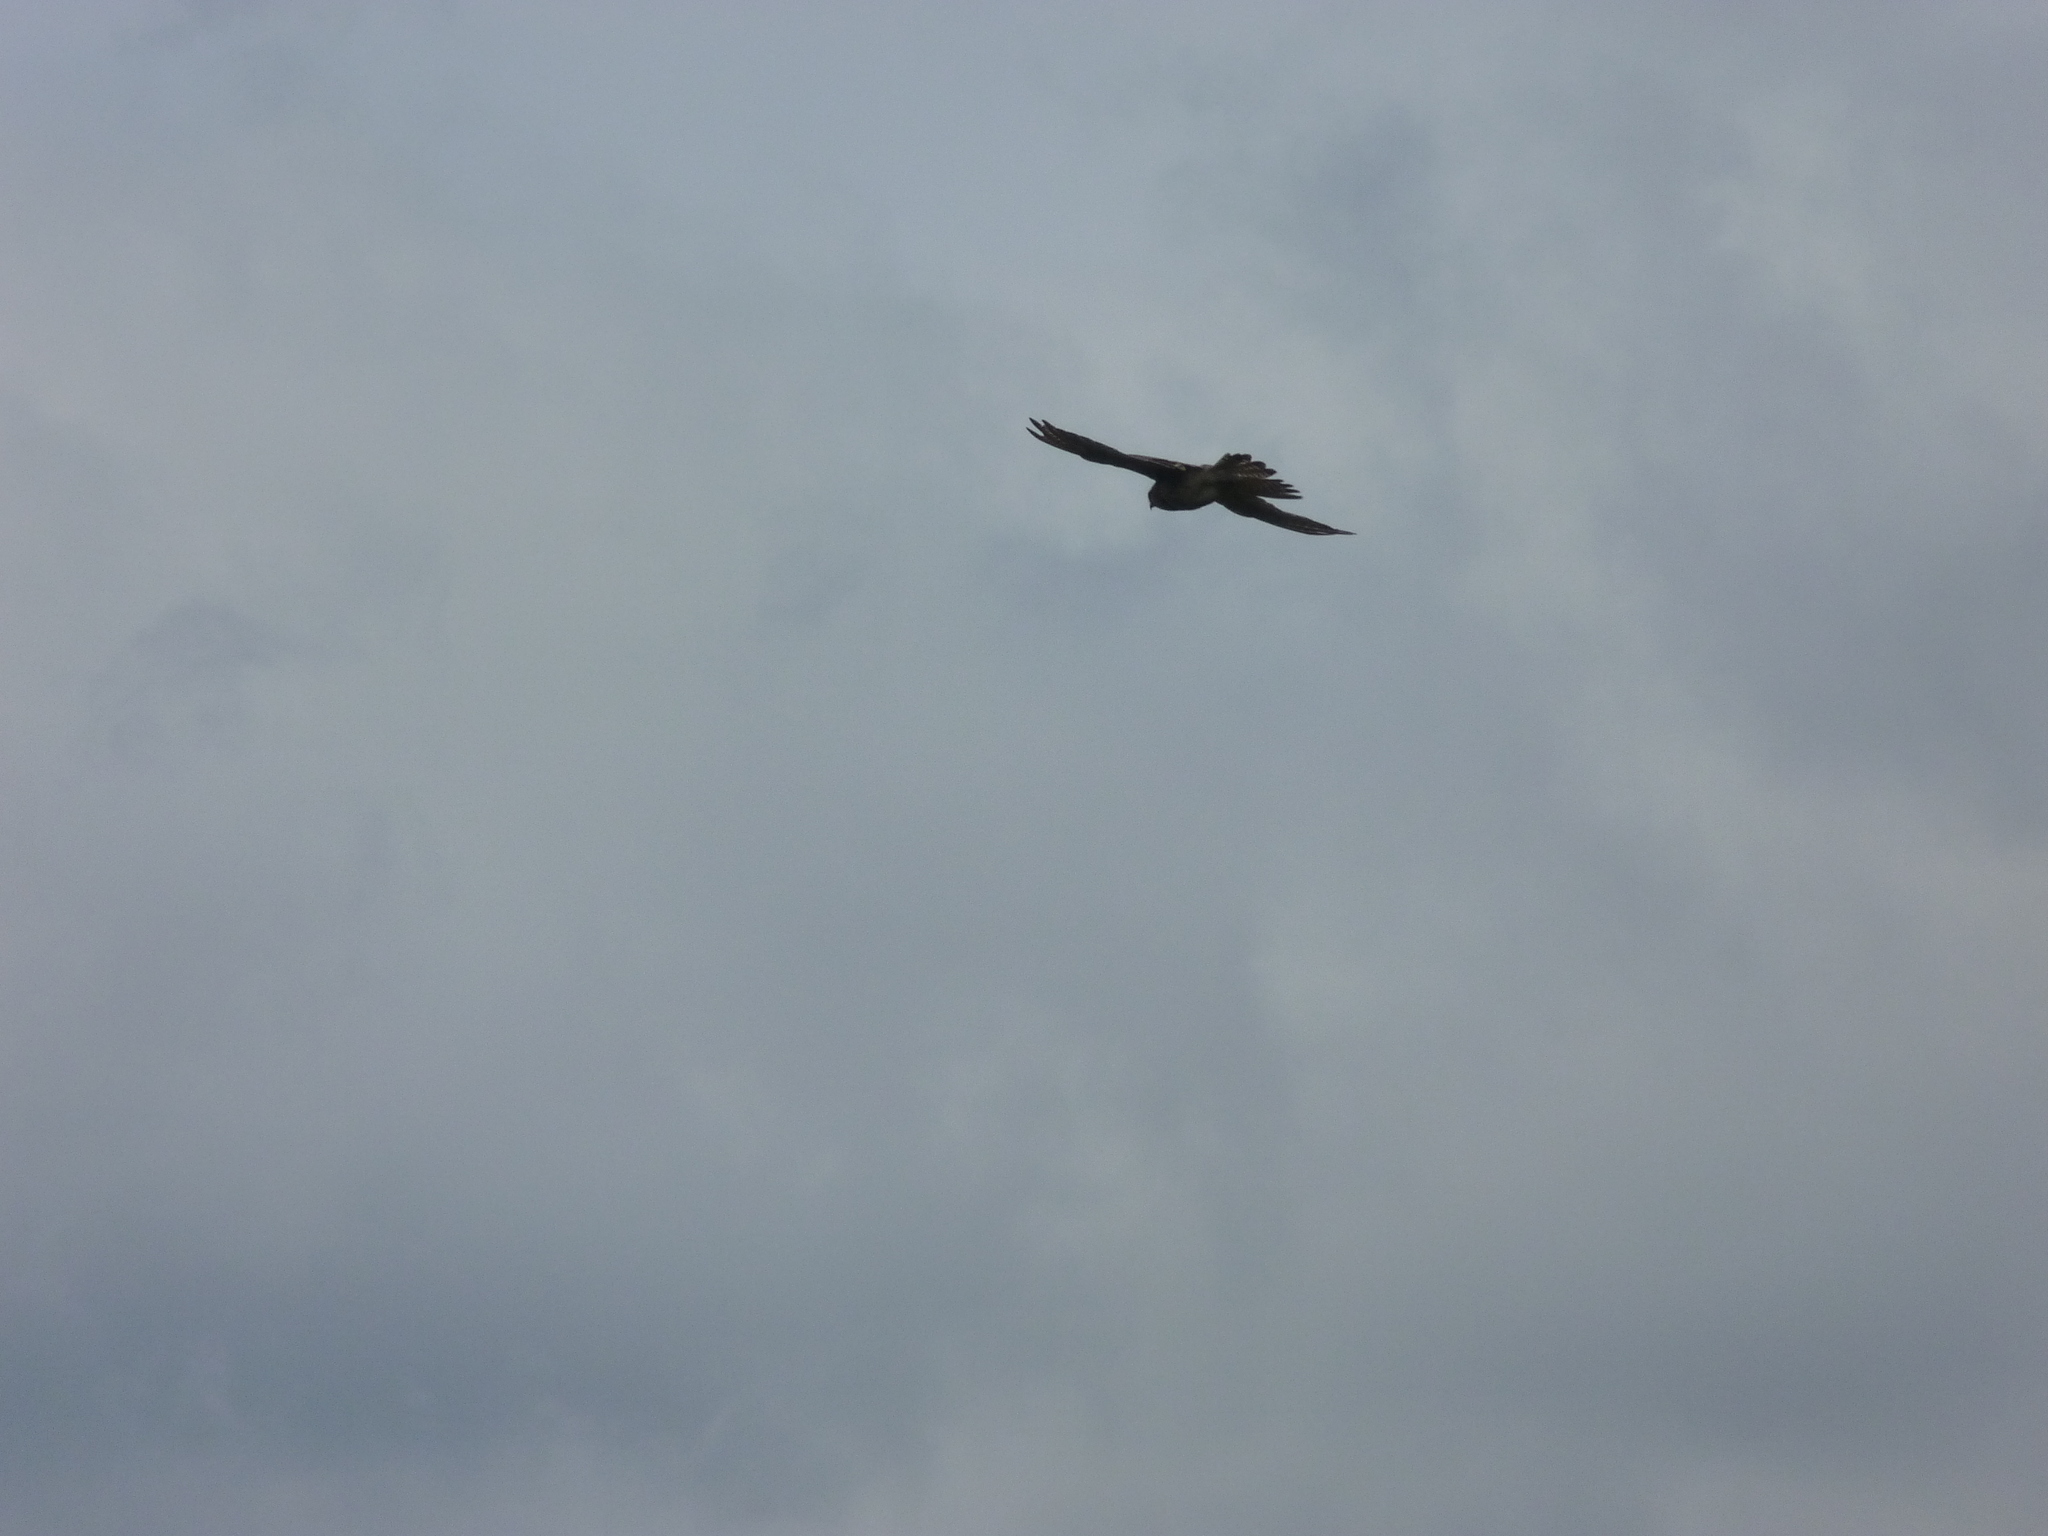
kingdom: Animalia
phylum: Chordata
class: Aves
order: Falconiformes
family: Falconidae
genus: Falco
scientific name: Falco tinnunculus
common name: Common kestrel
